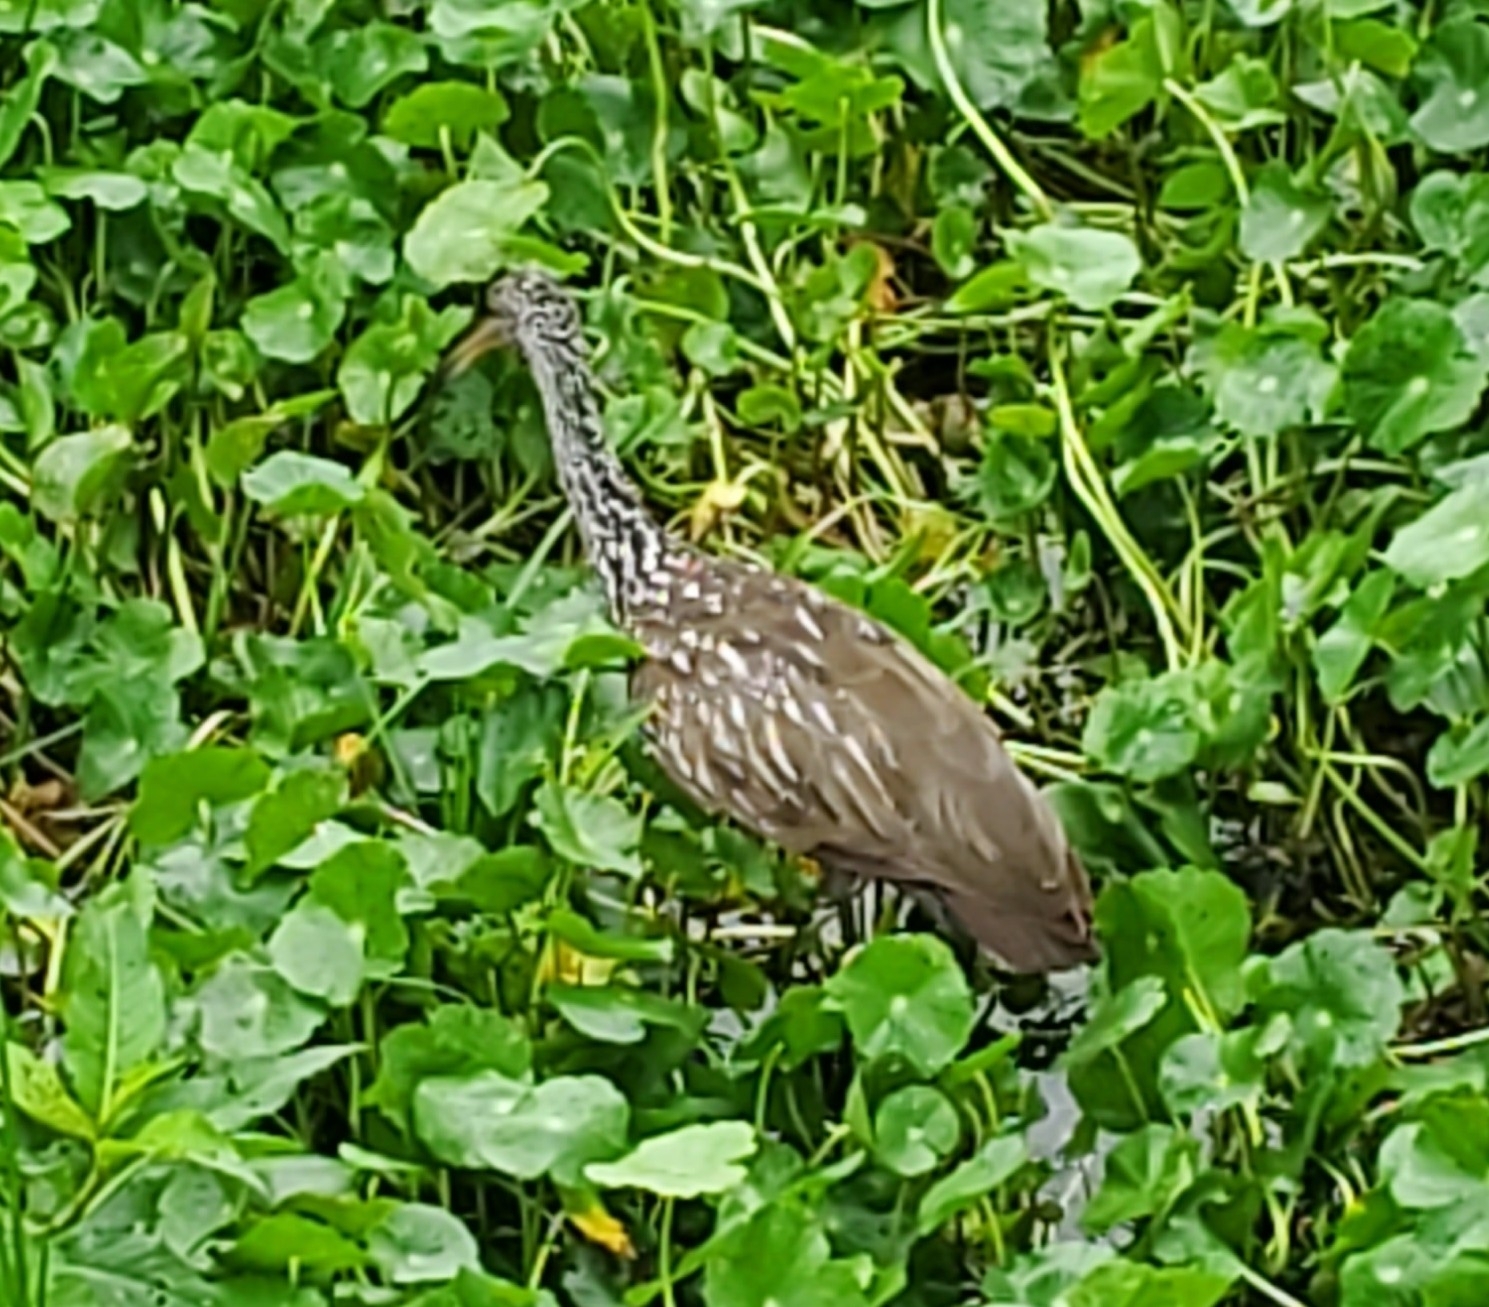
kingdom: Animalia
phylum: Chordata
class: Aves
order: Gruiformes
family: Aramidae
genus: Aramus
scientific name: Aramus guarauna
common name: Limpkin
